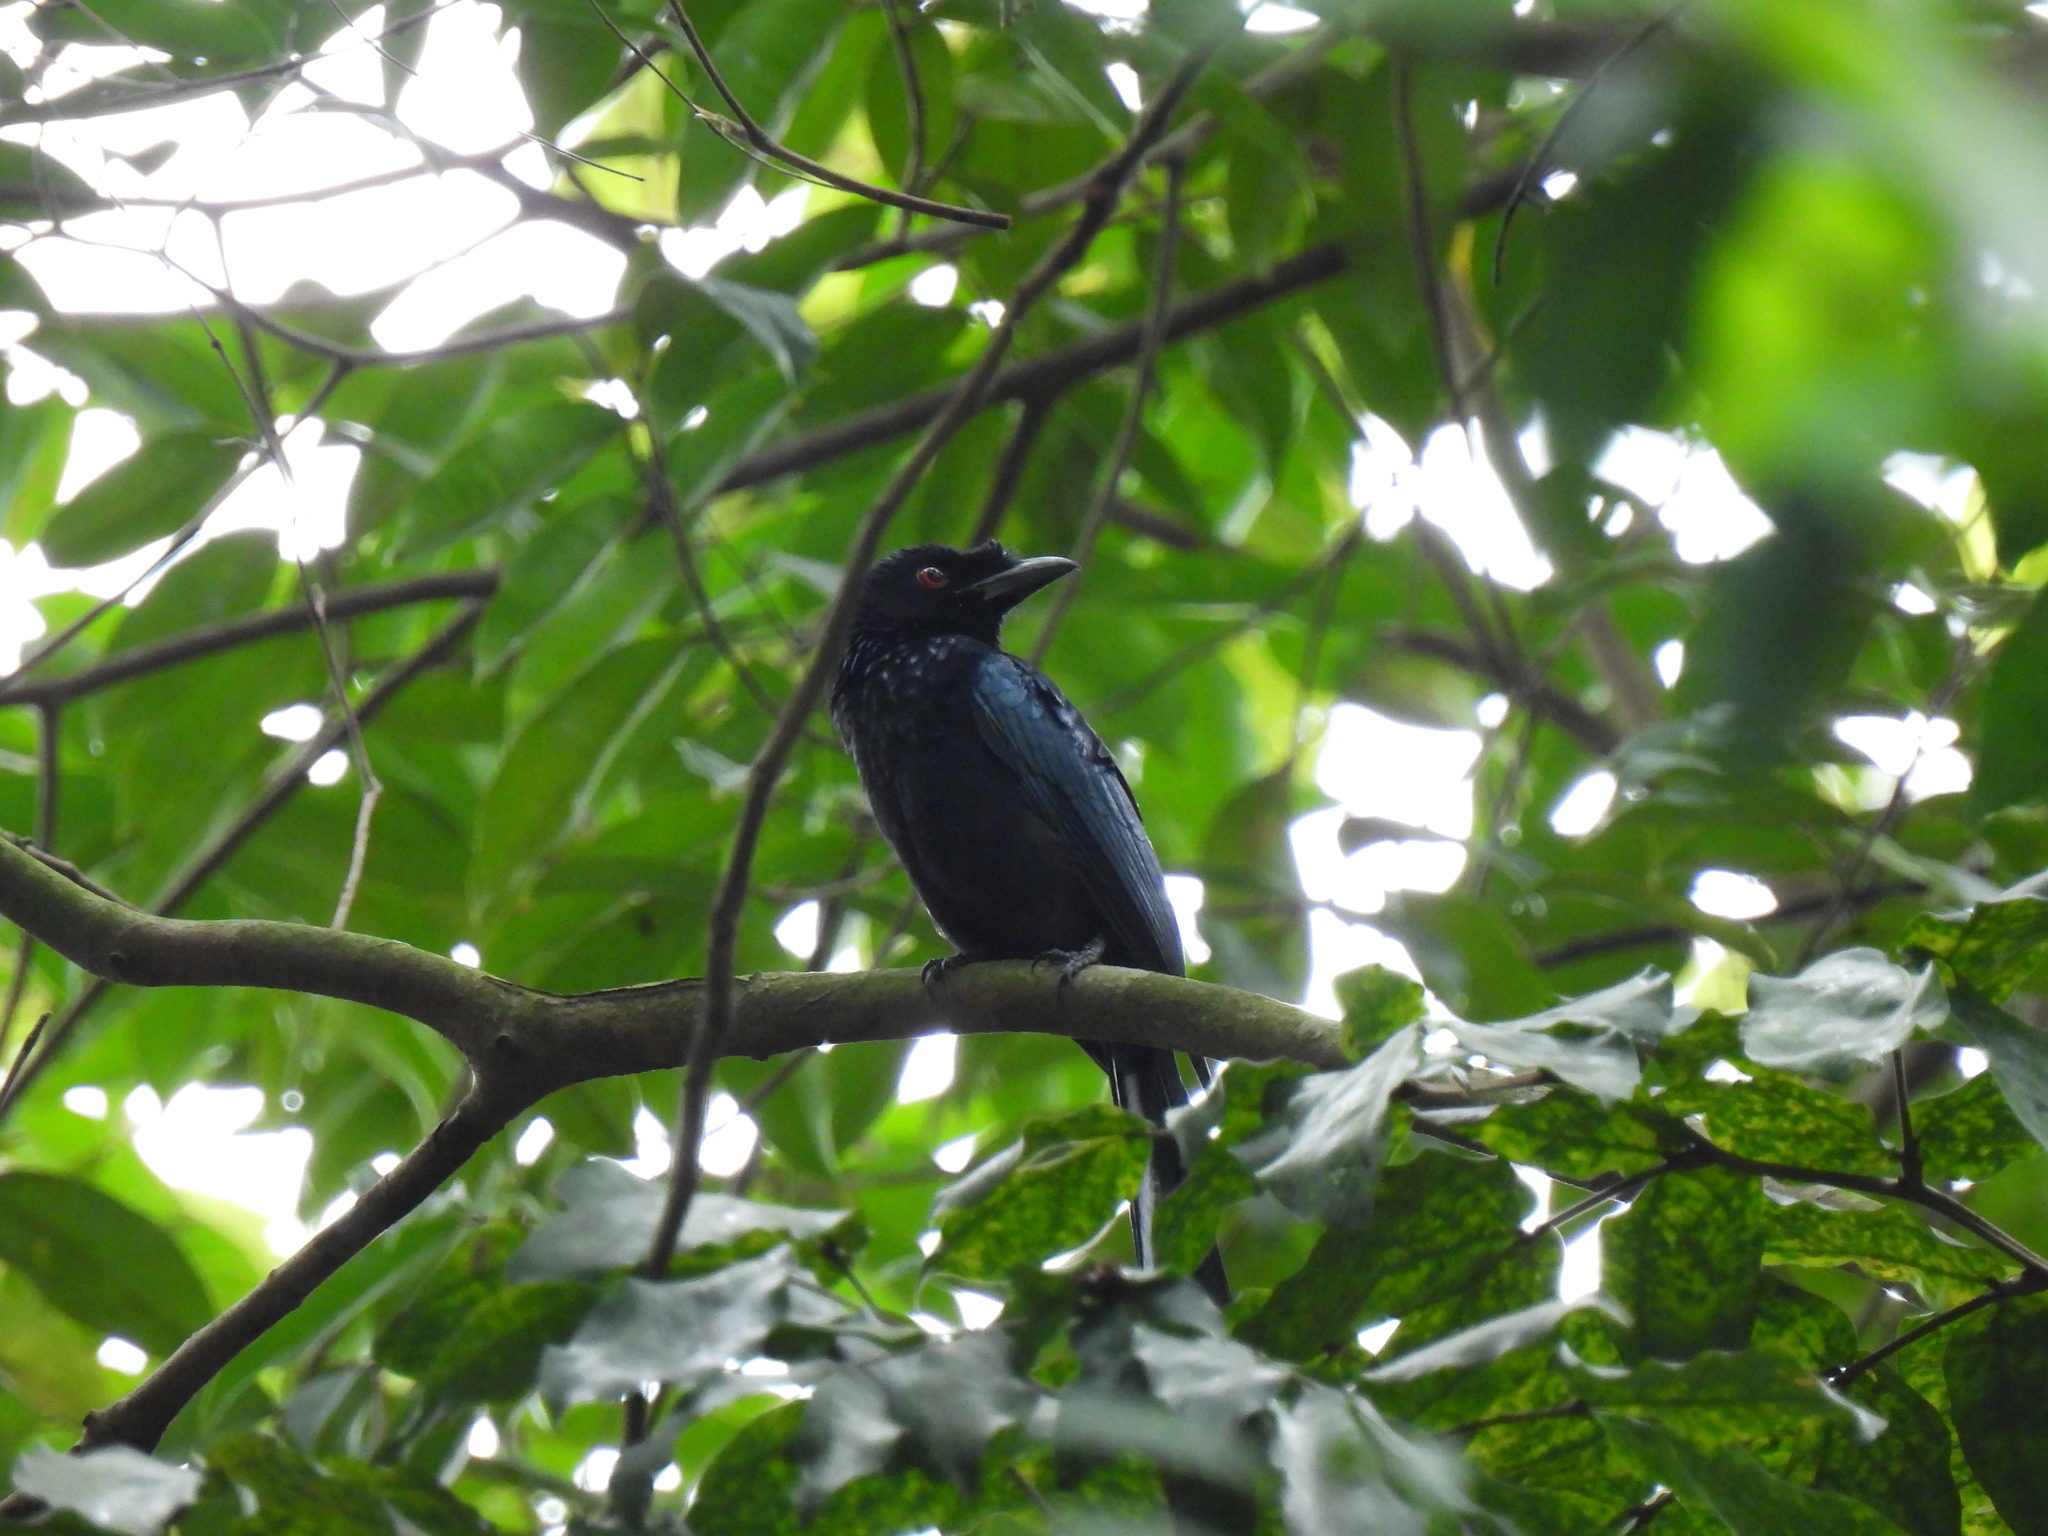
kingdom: Animalia
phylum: Chordata
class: Aves
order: Passeriformes
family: Dicruridae
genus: Dicrurus
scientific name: Dicrurus paradiseus
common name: Greater racket-tailed drongo
